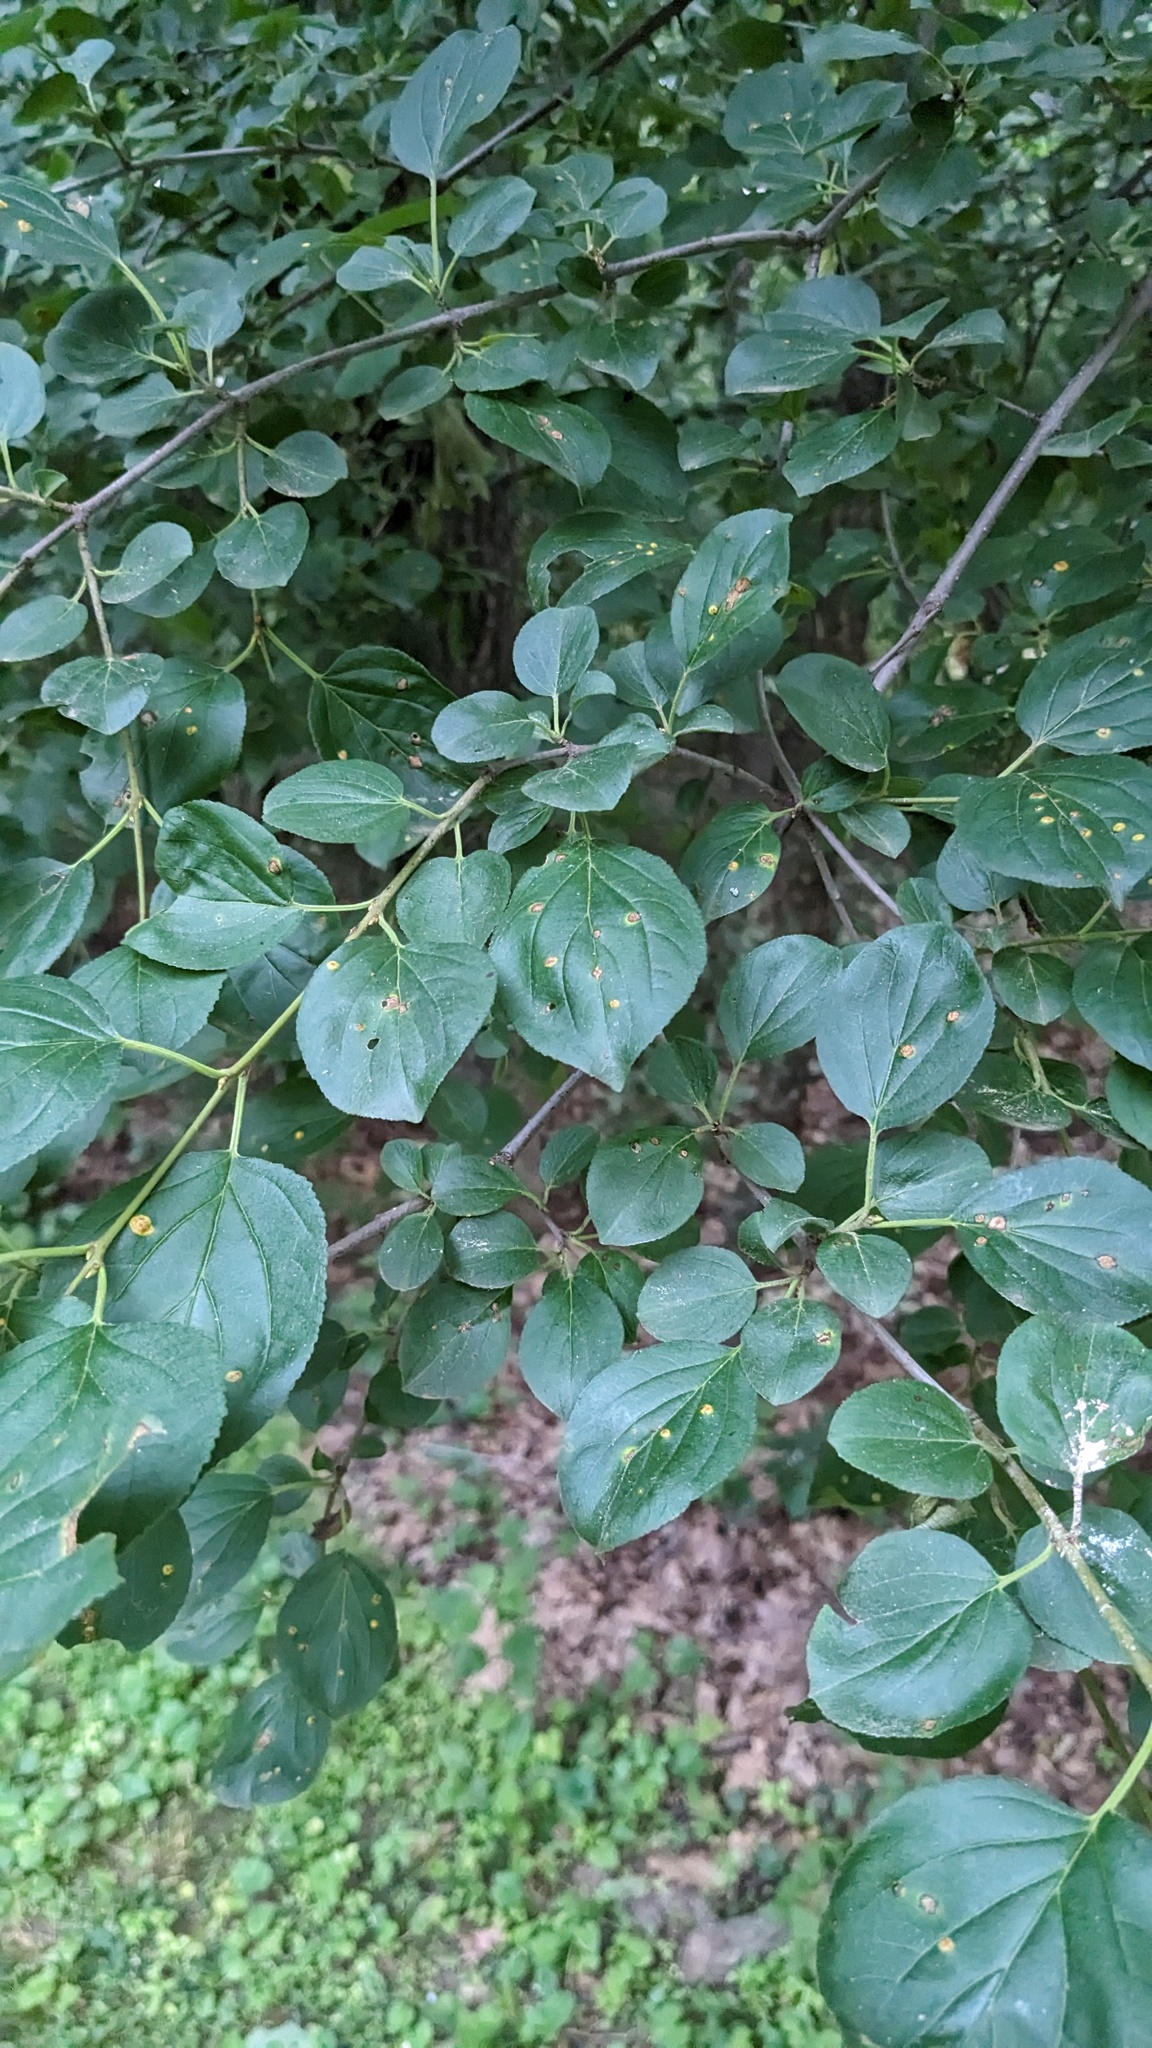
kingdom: Plantae
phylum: Tracheophyta
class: Magnoliopsida
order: Rosales
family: Rhamnaceae
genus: Rhamnus
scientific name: Rhamnus cathartica
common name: Common buckthorn
